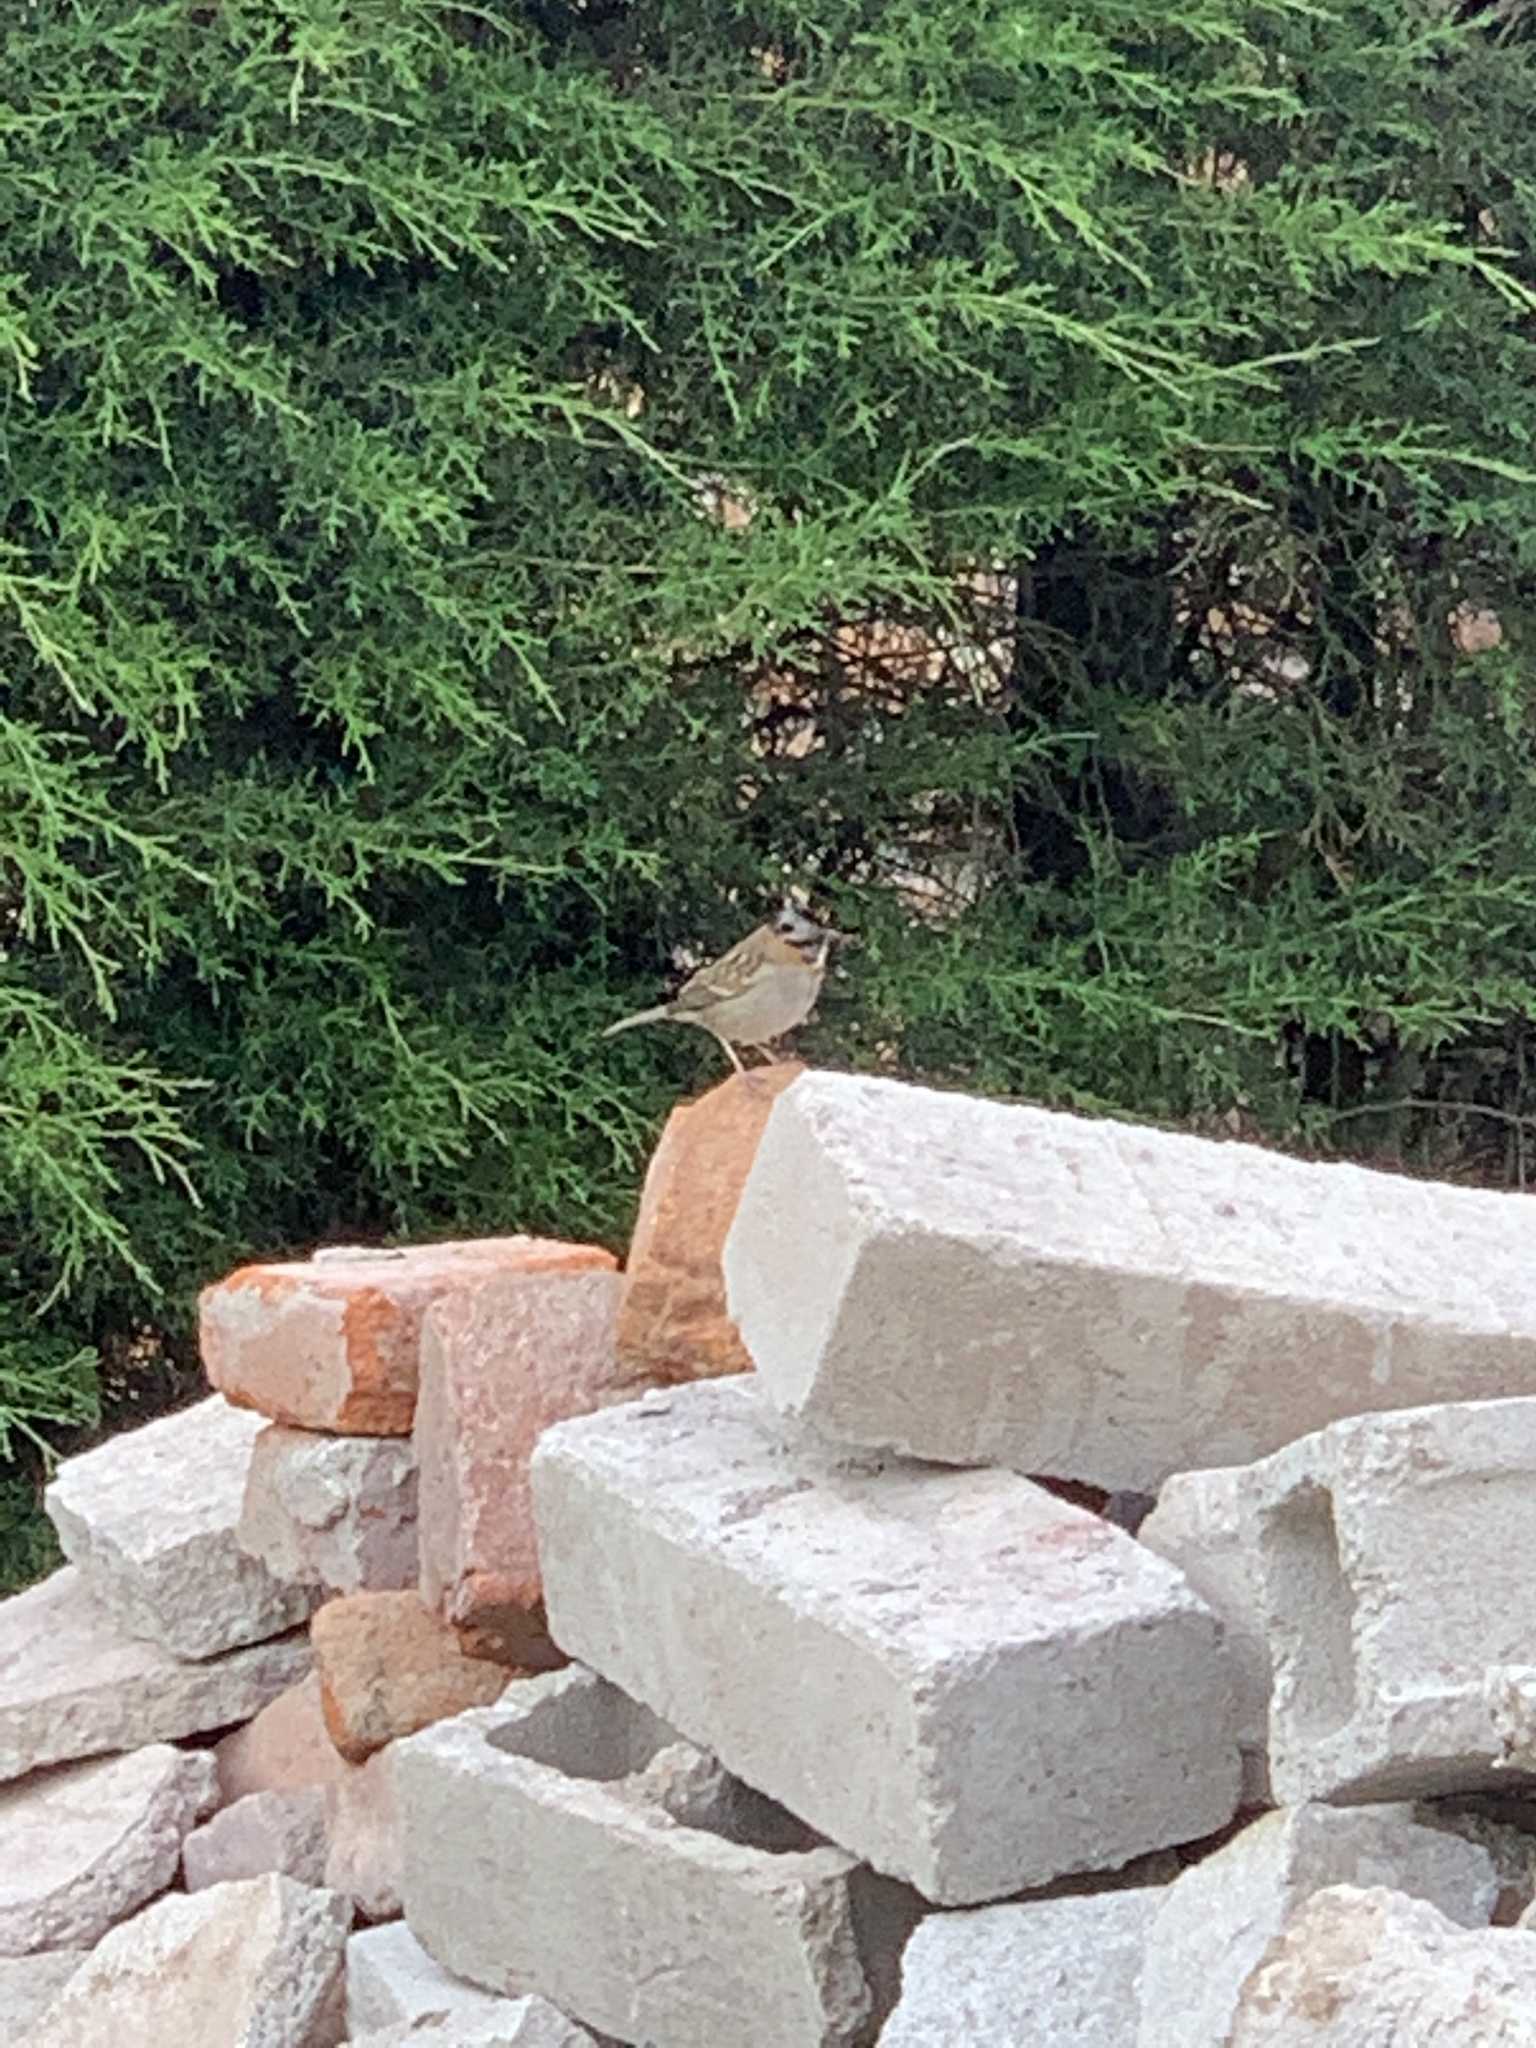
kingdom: Animalia
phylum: Chordata
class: Aves
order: Passeriformes
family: Passerellidae
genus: Zonotrichia
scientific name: Zonotrichia capensis
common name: Rufous-collared sparrow
